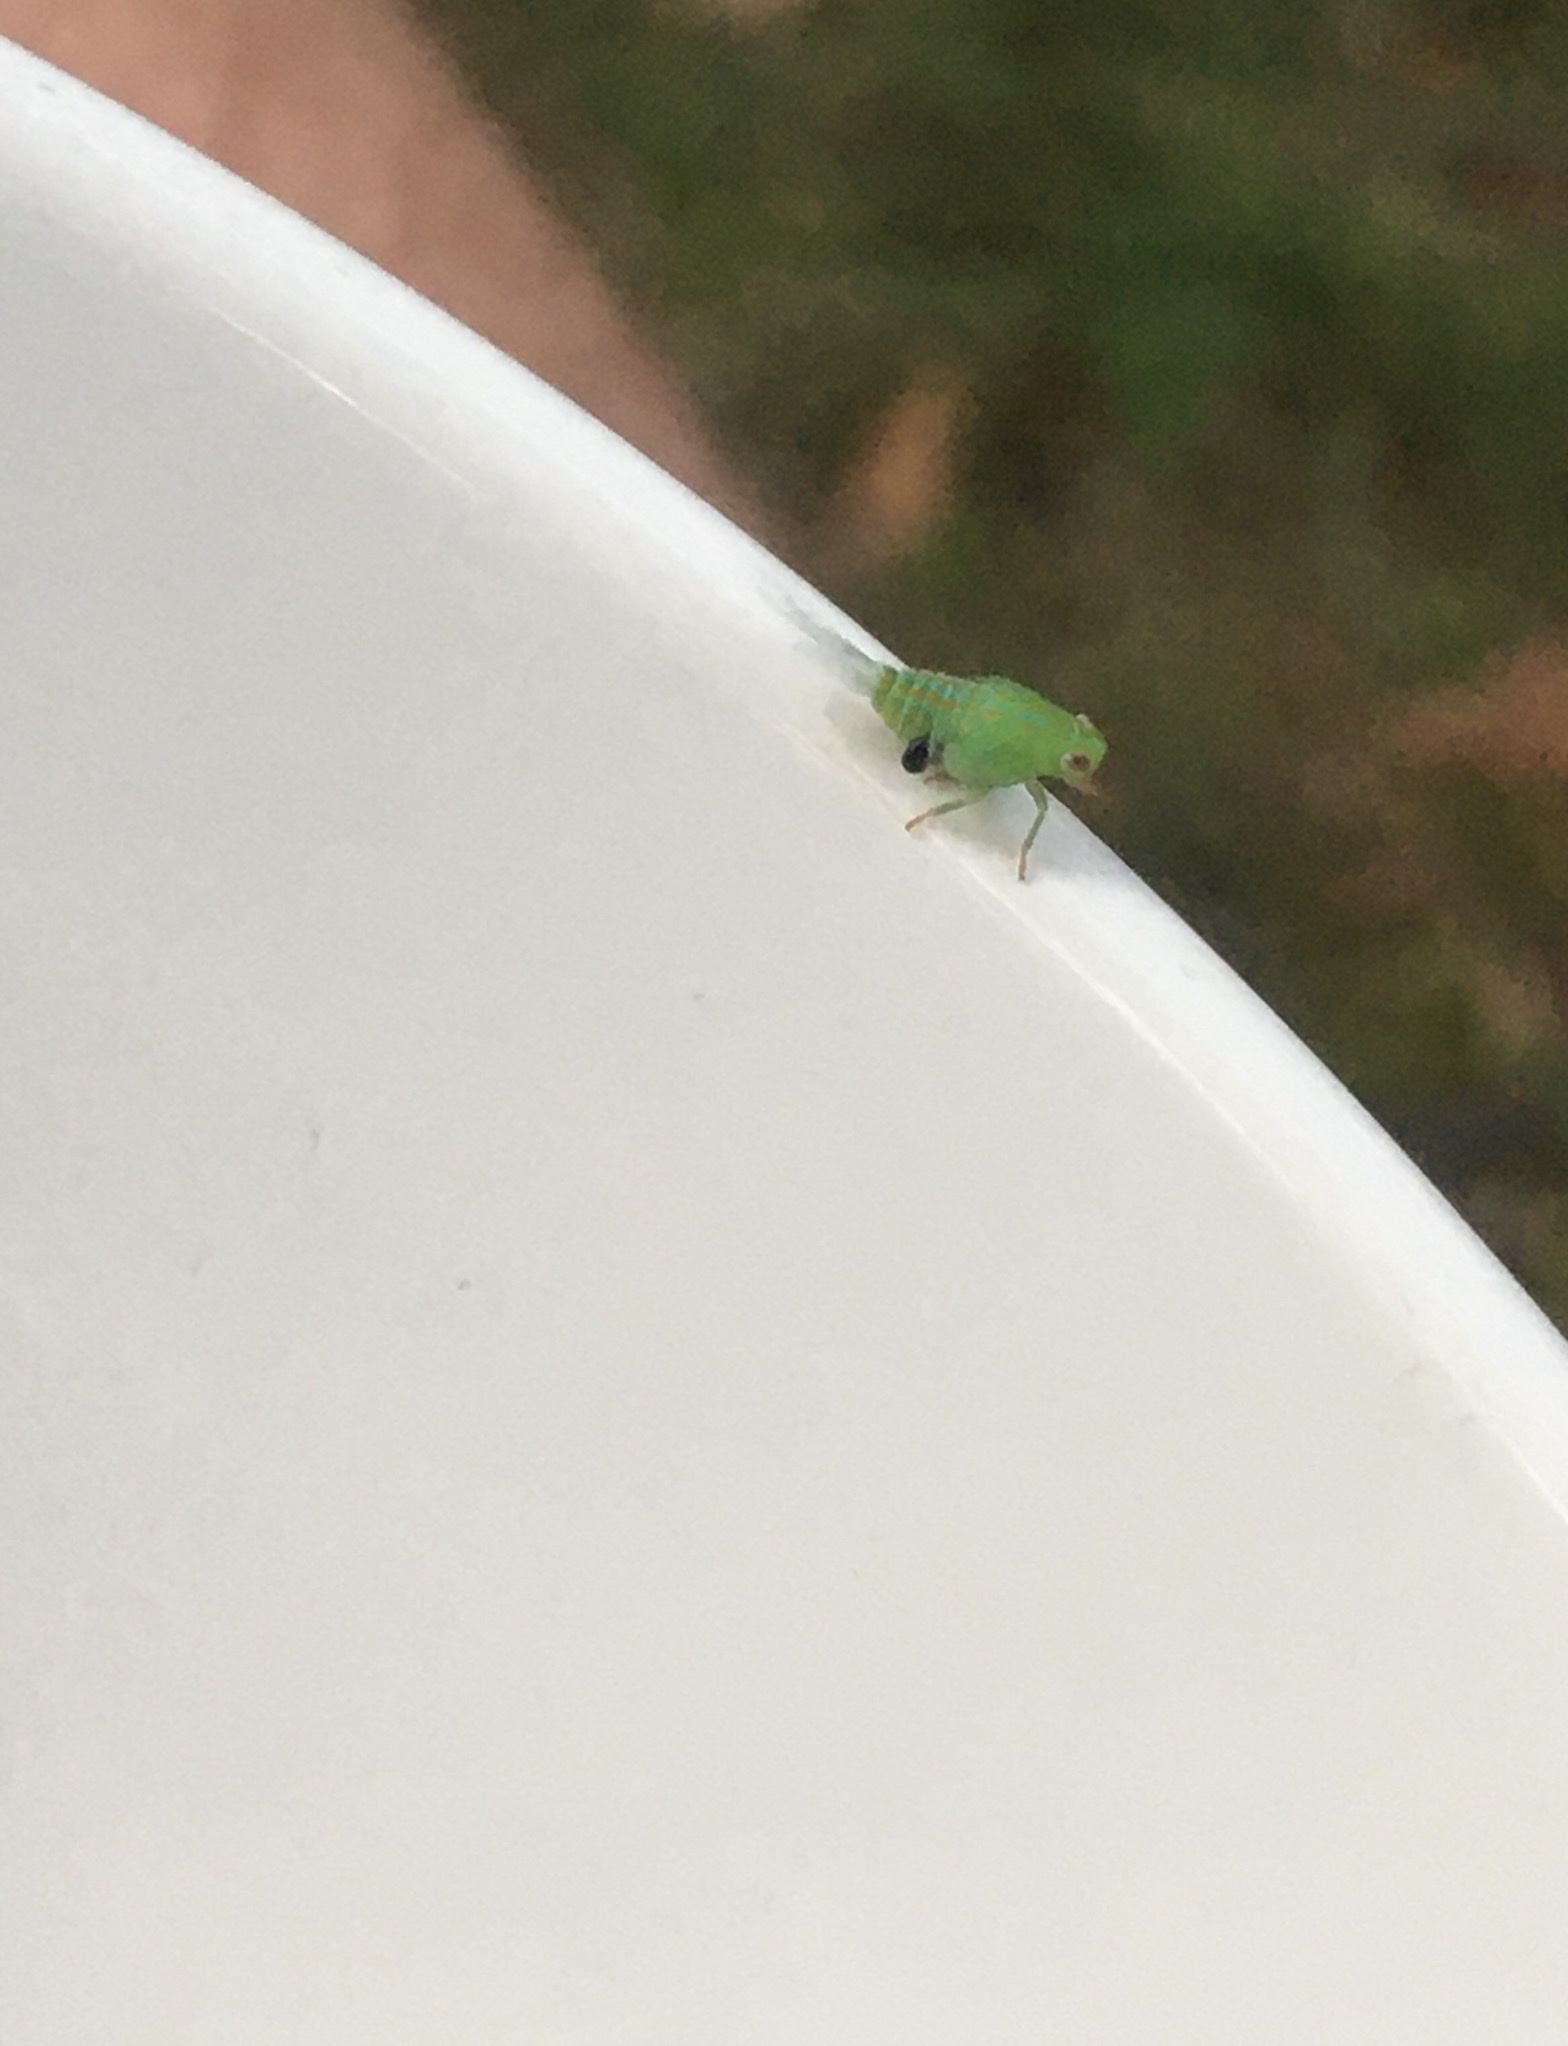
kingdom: Animalia
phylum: Arthropoda
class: Insecta
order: Hemiptera
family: Issidae
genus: Aplos
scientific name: Aplos simplex
